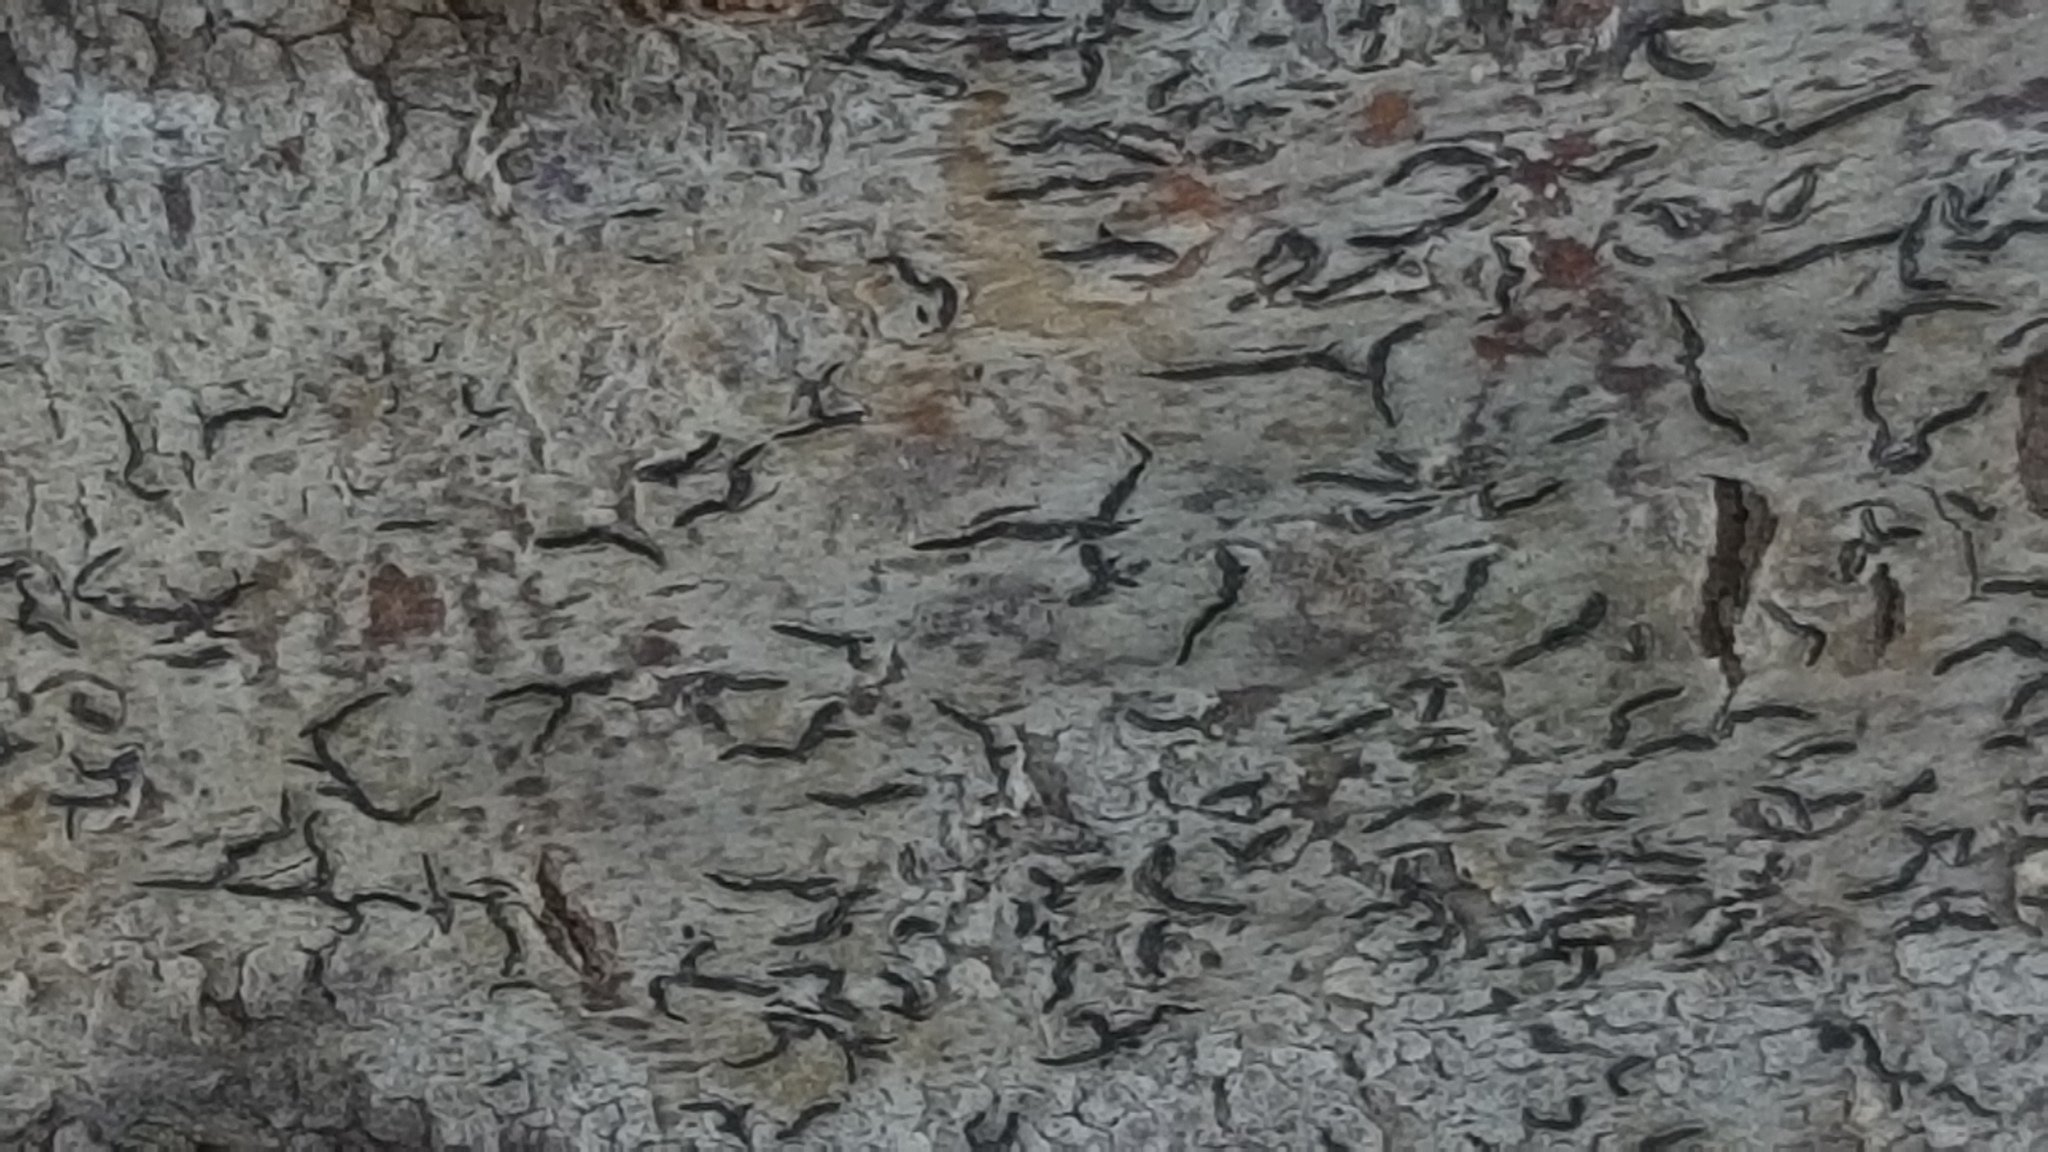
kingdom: Fungi
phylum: Ascomycota
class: Lecanoromycetes
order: Ostropales
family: Graphidaceae
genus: Graphis
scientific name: Graphis scripta
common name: Script lichen
